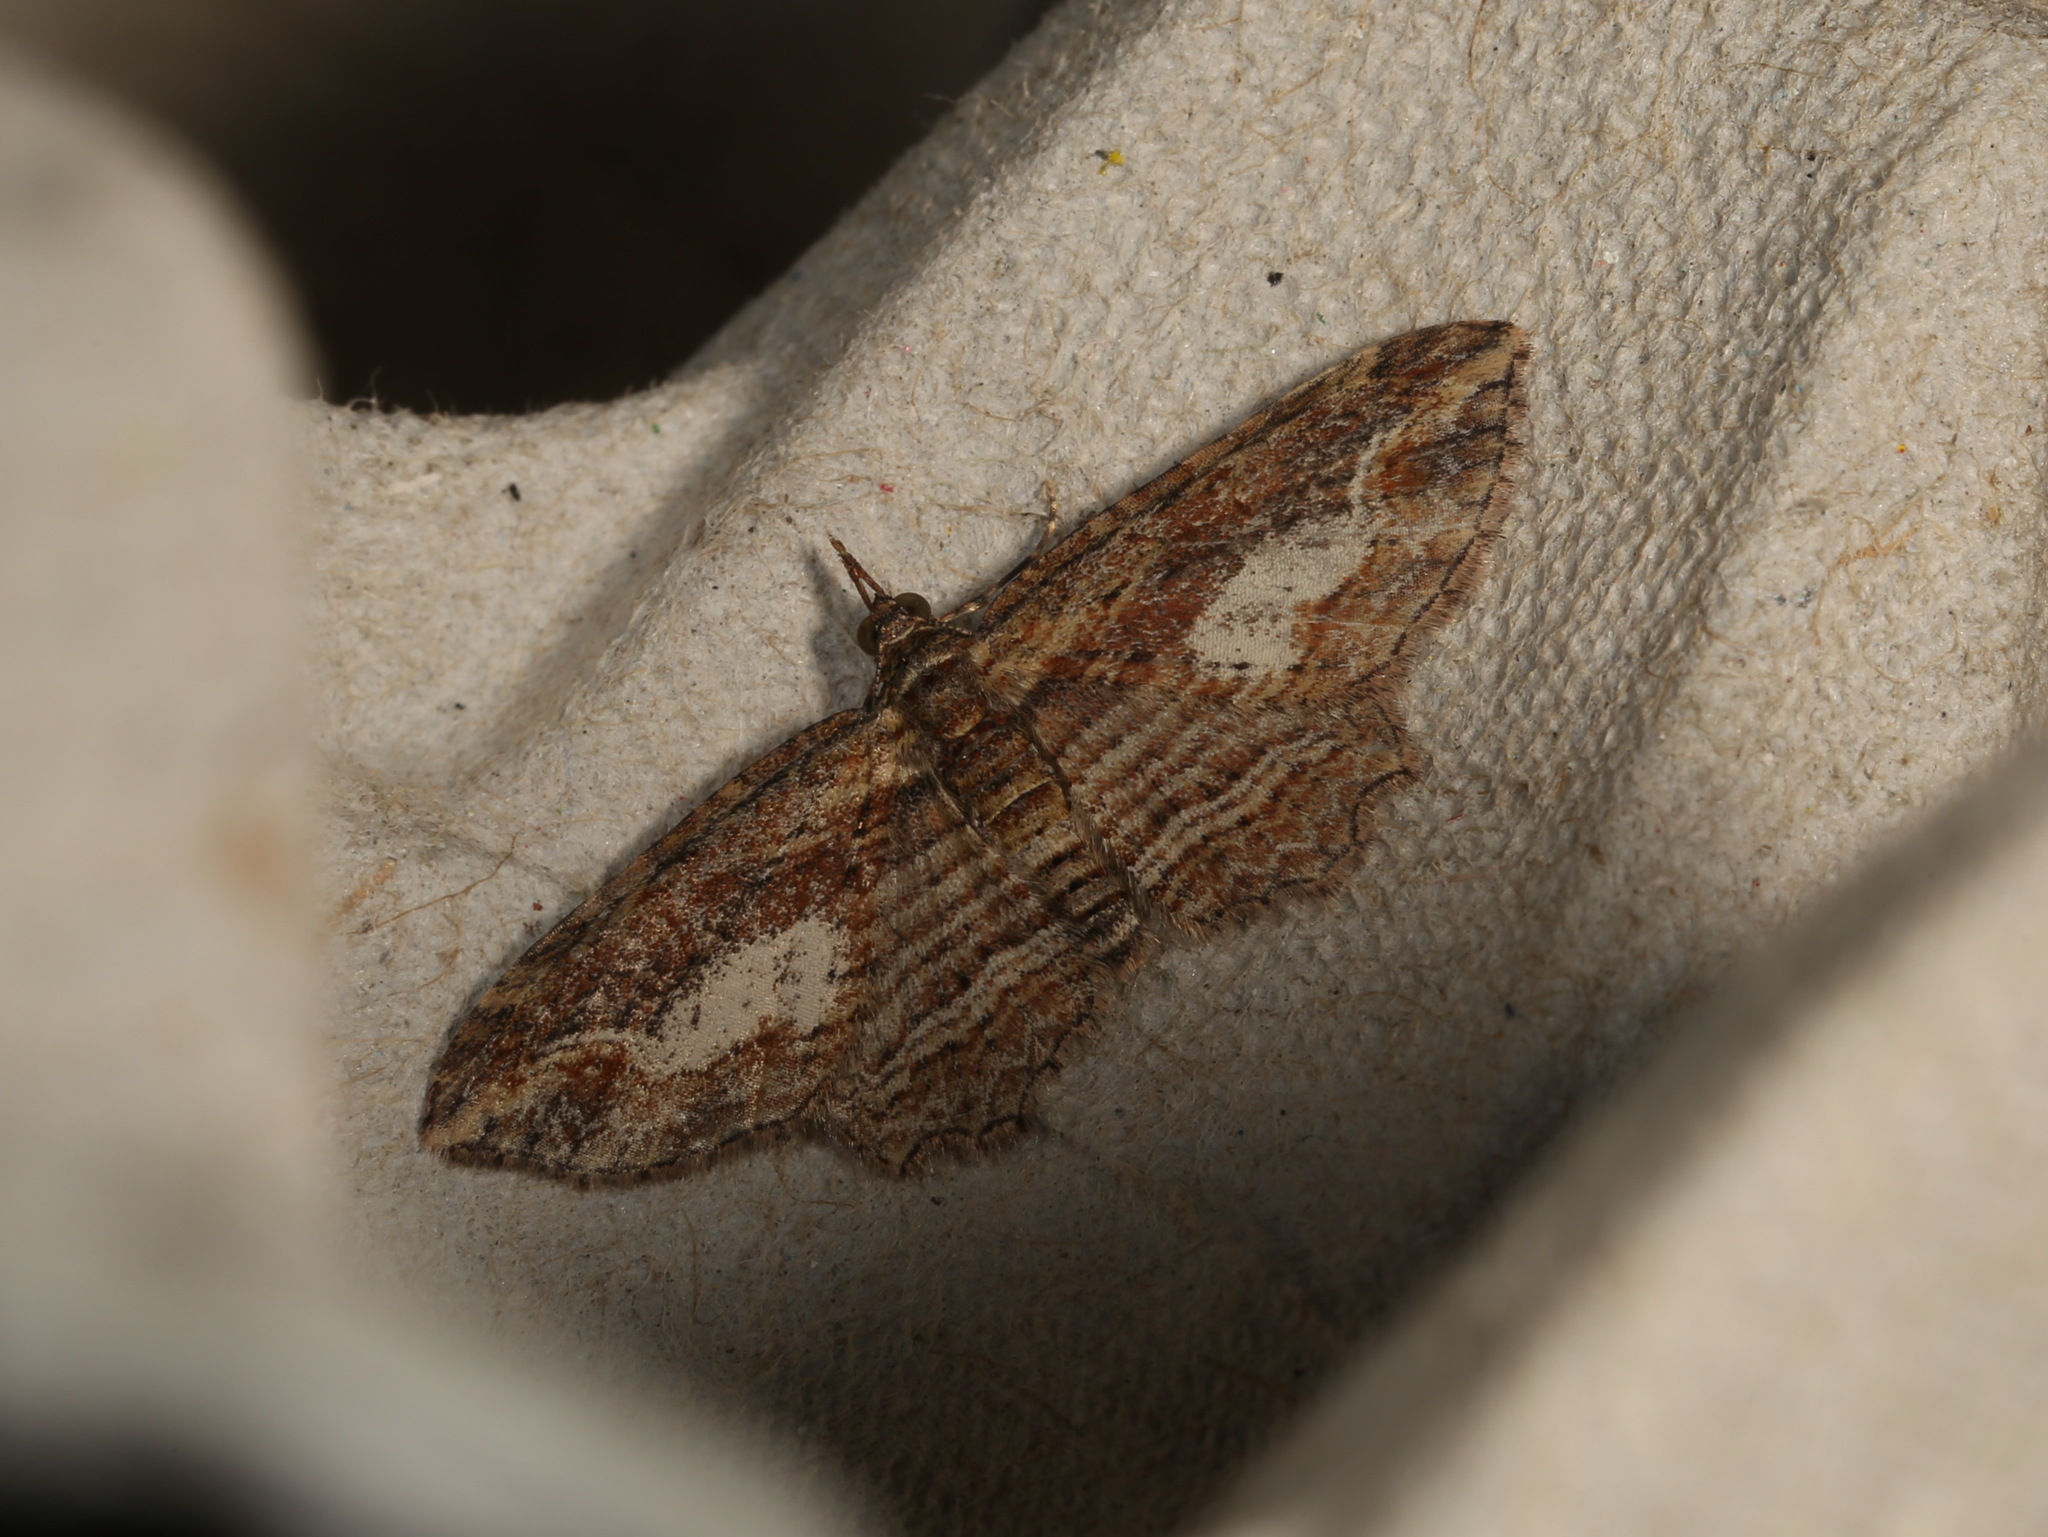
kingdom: Animalia
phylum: Arthropoda
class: Insecta
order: Lepidoptera
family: Geometridae
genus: Chloroclystis
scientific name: Chloroclystis filata
